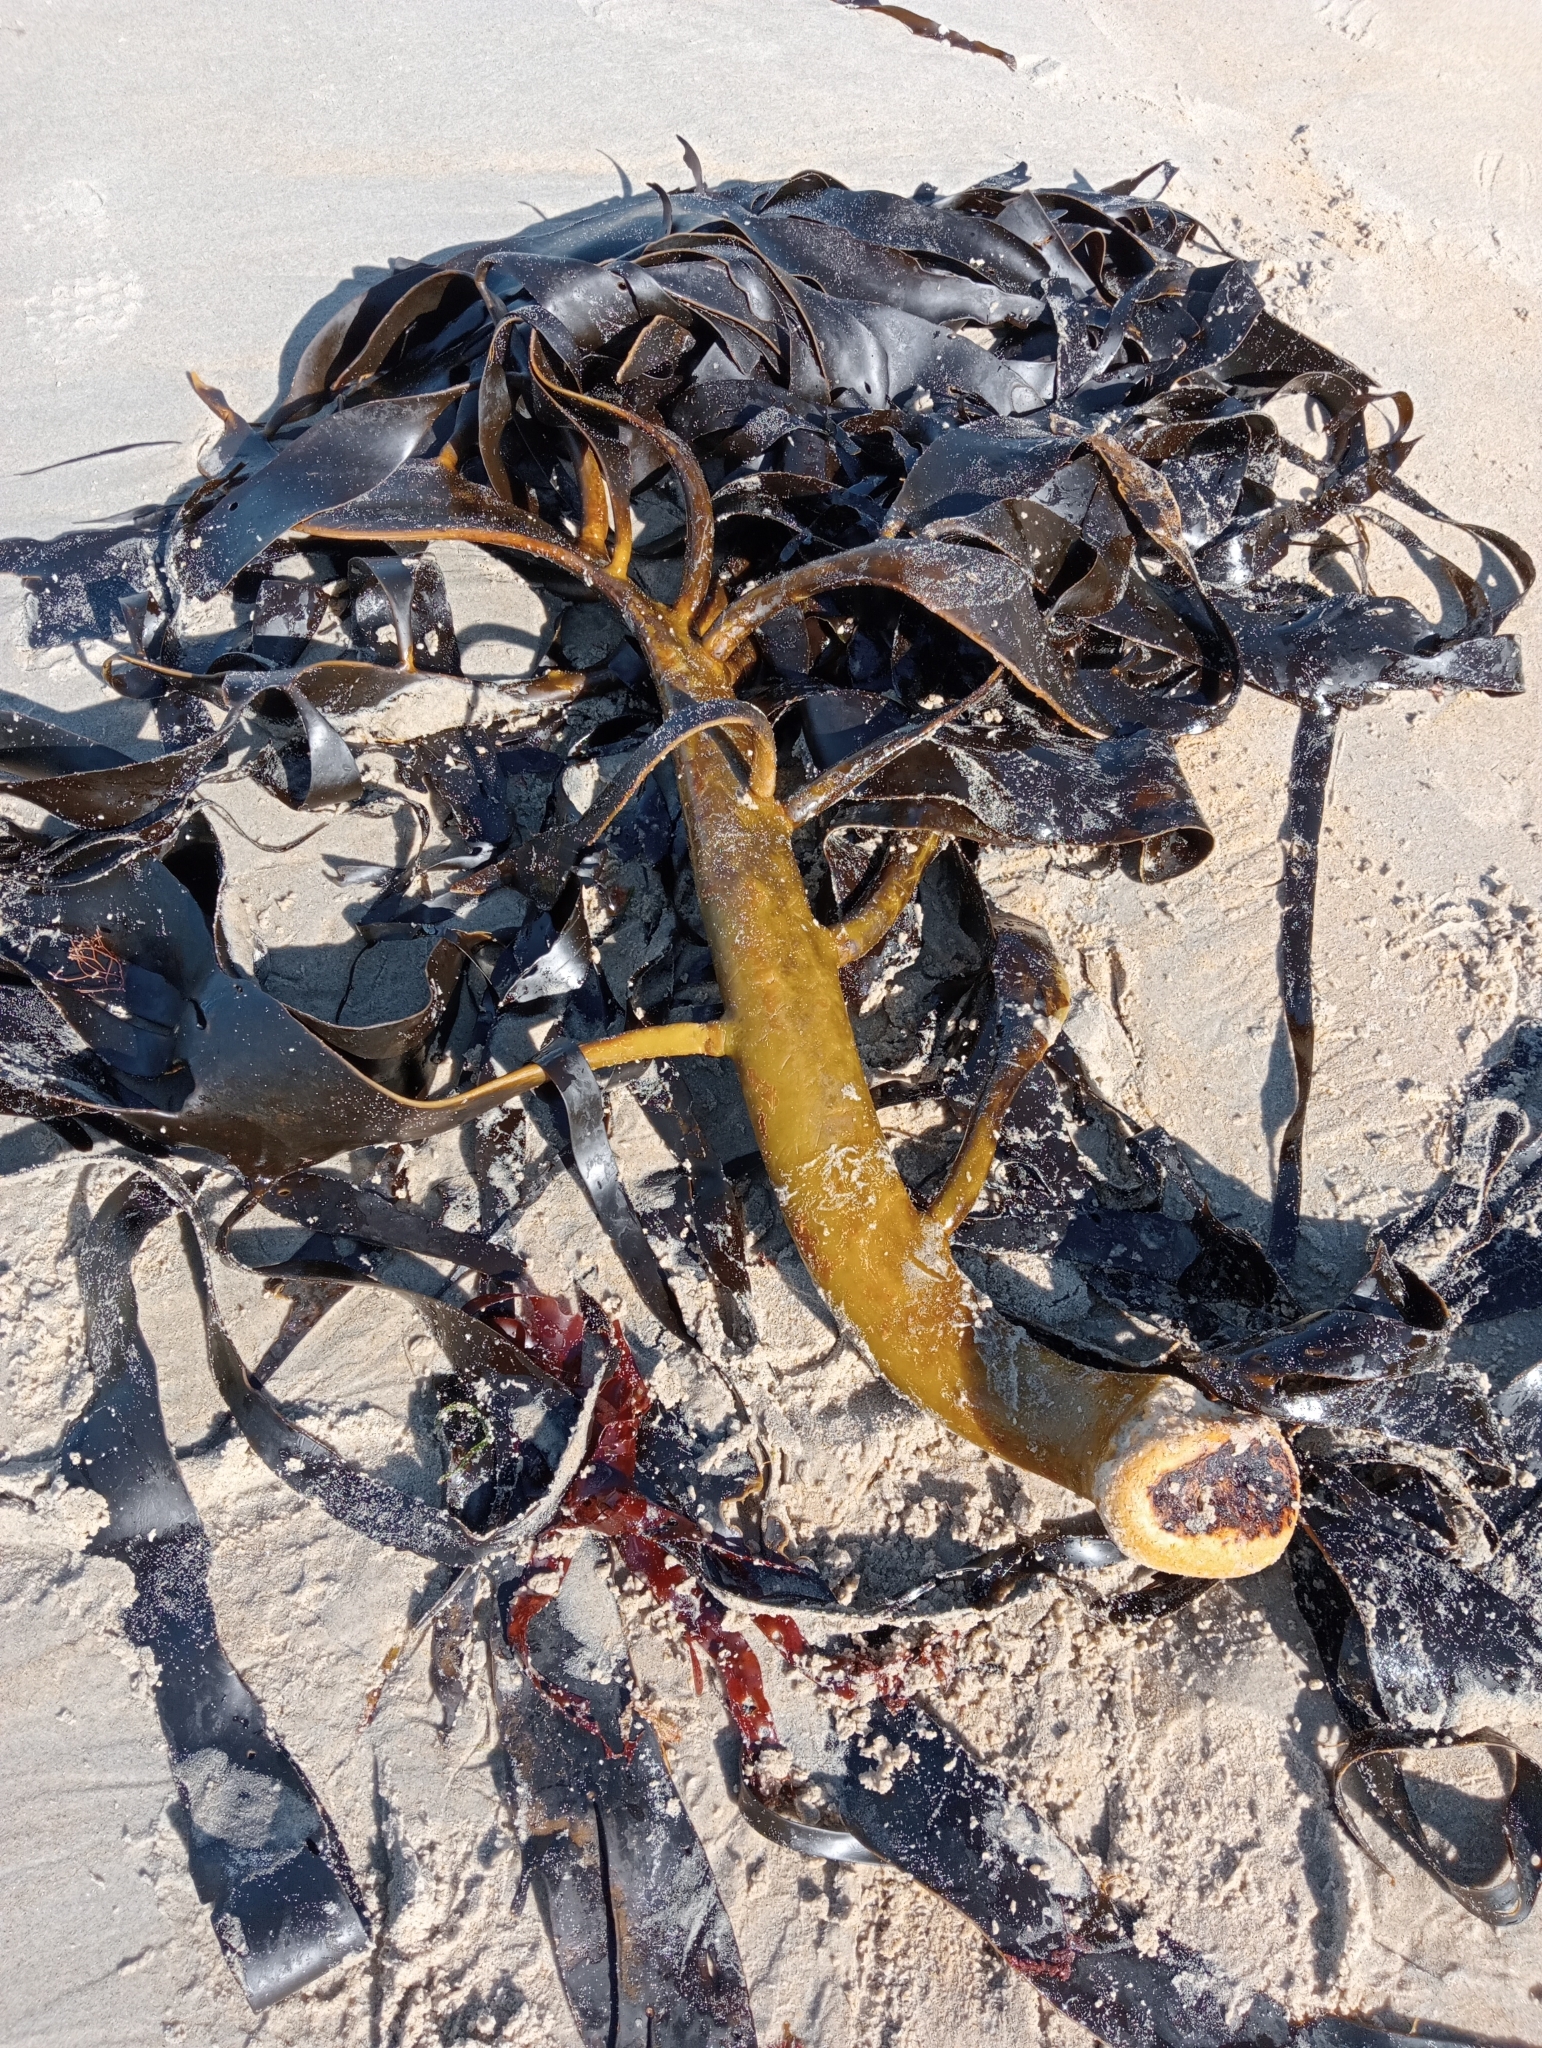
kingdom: Chromista
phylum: Ochrophyta
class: Phaeophyceae
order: Fucales
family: Durvillaeaceae
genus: Durvillaea
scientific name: Durvillaea willana
